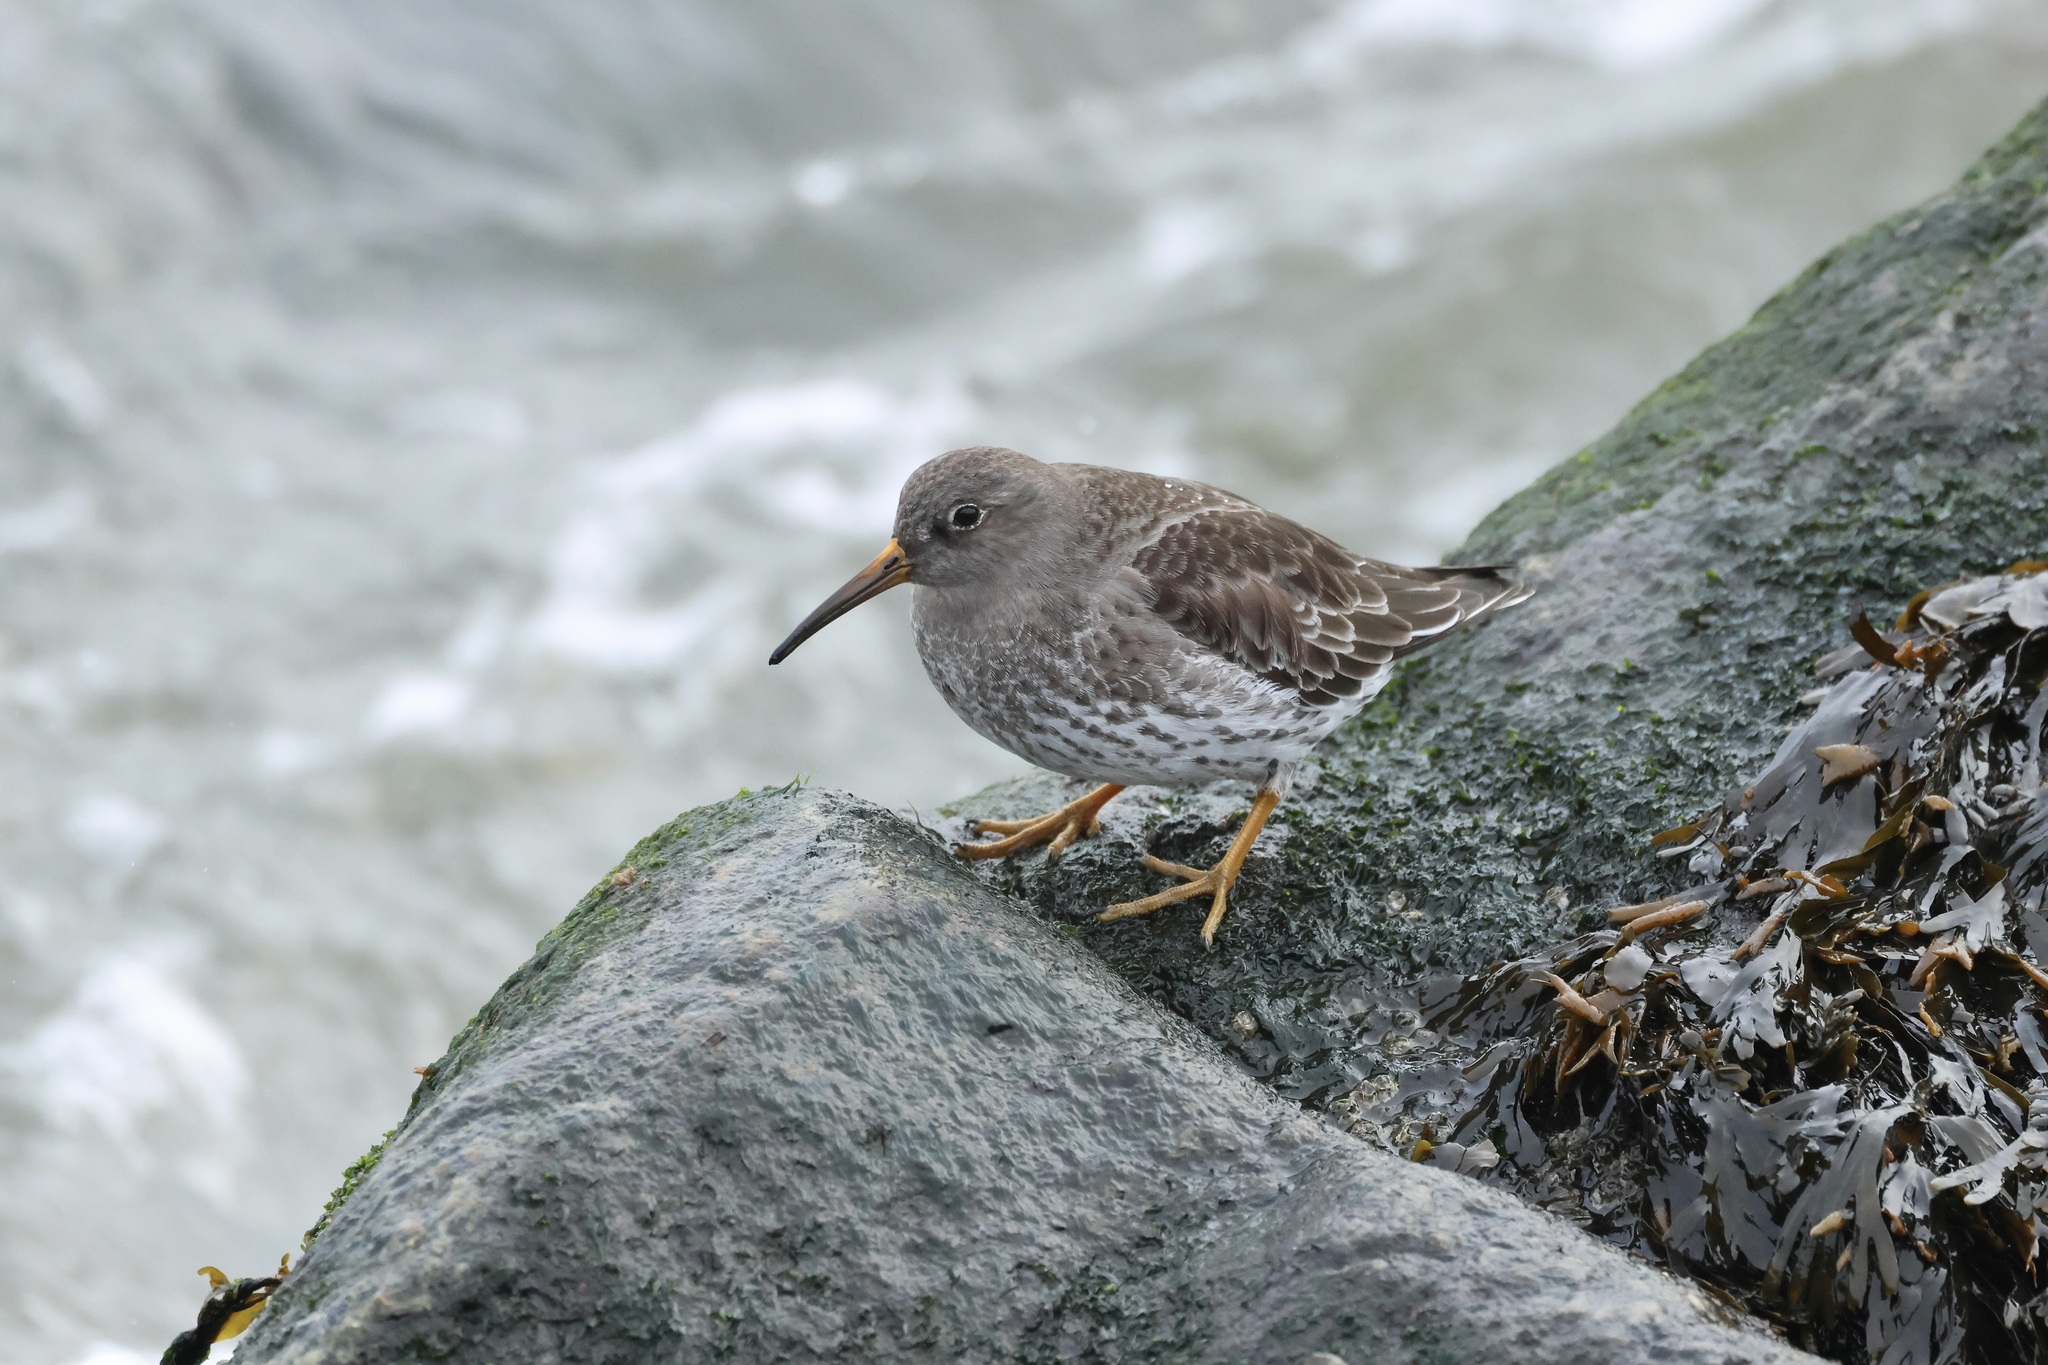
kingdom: Animalia
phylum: Chordata
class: Aves
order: Charadriiformes
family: Scolopacidae
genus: Calidris
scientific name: Calidris maritima
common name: Purple sandpiper
